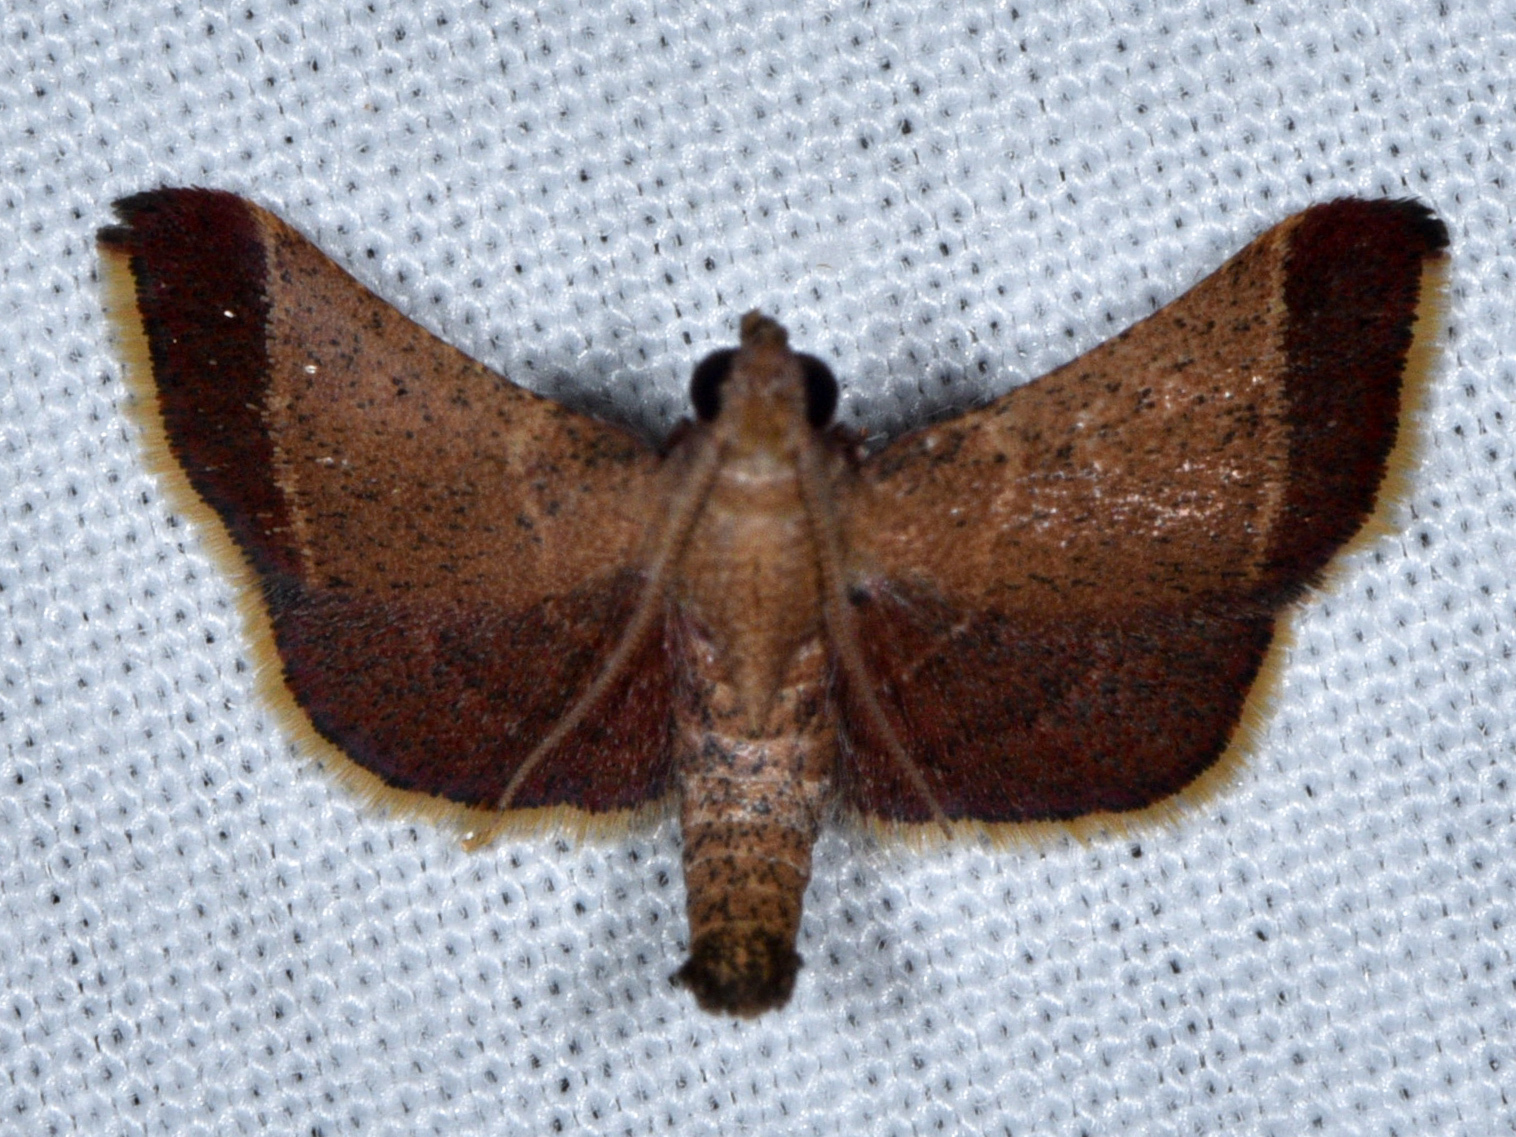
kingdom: Animalia
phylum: Arthropoda
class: Insecta
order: Lepidoptera
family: Pyralidae
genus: Hypsopygia
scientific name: Hypsopygia amoenalis
